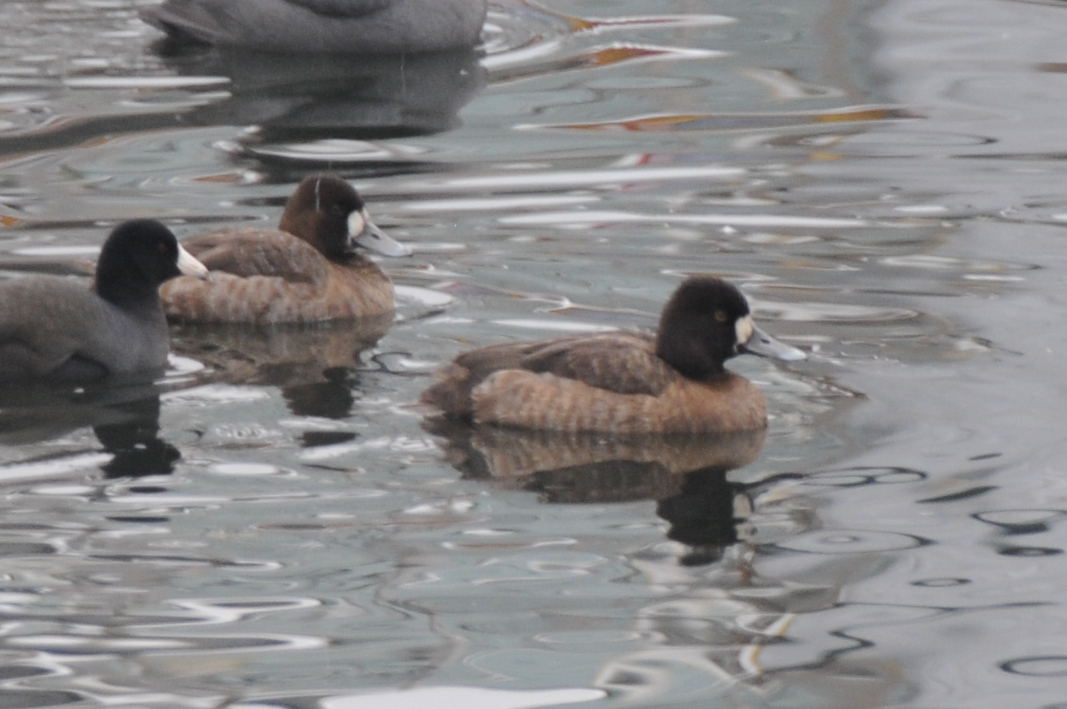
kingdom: Animalia
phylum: Chordata
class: Aves
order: Anseriformes
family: Anatidae
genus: Aythya
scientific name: Aythya affinis
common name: Lesser scaup
